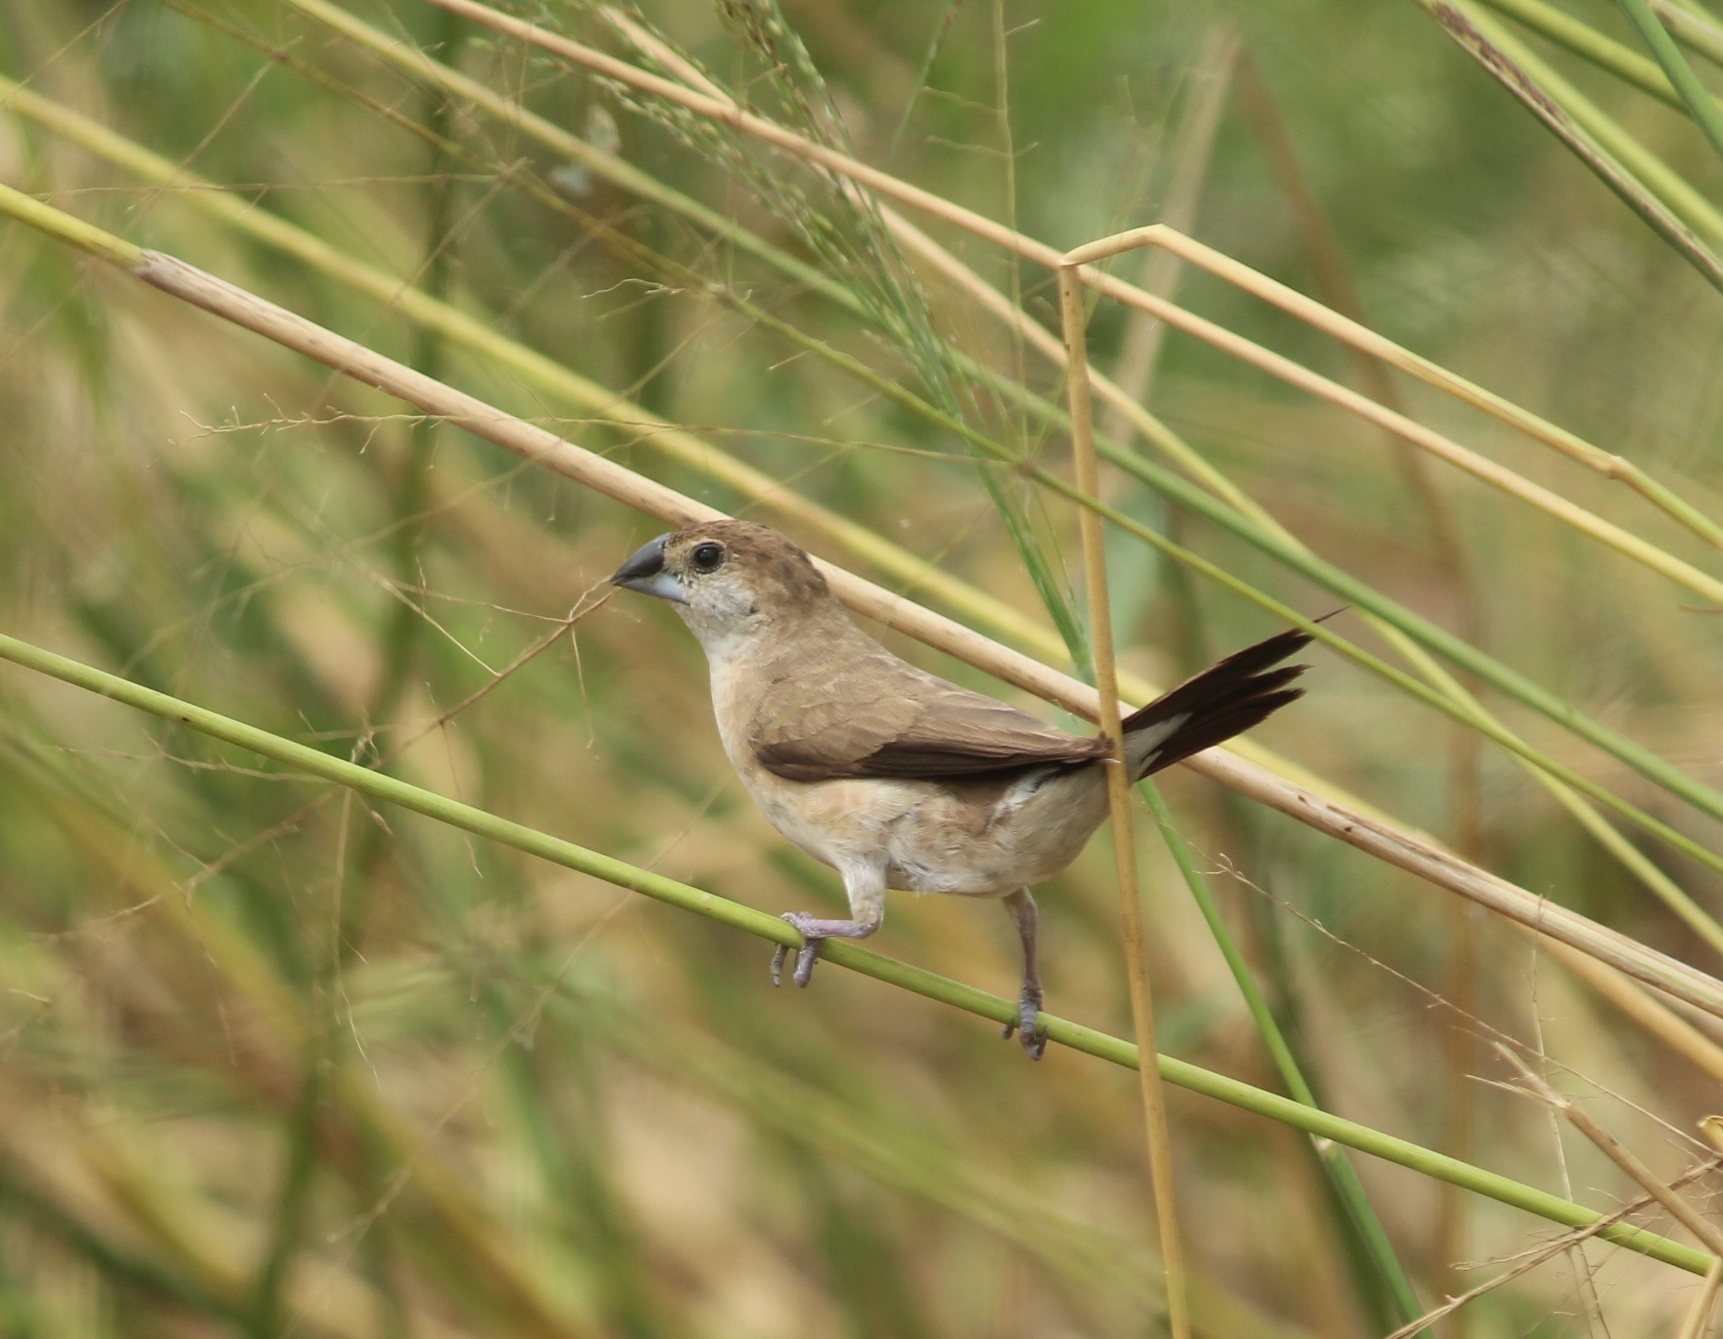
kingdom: Animalia
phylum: Chordata
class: Aves
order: Passeriformes
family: Estrildidae
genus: Euodice
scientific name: Euodice malabarica
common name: Indian silverbill
